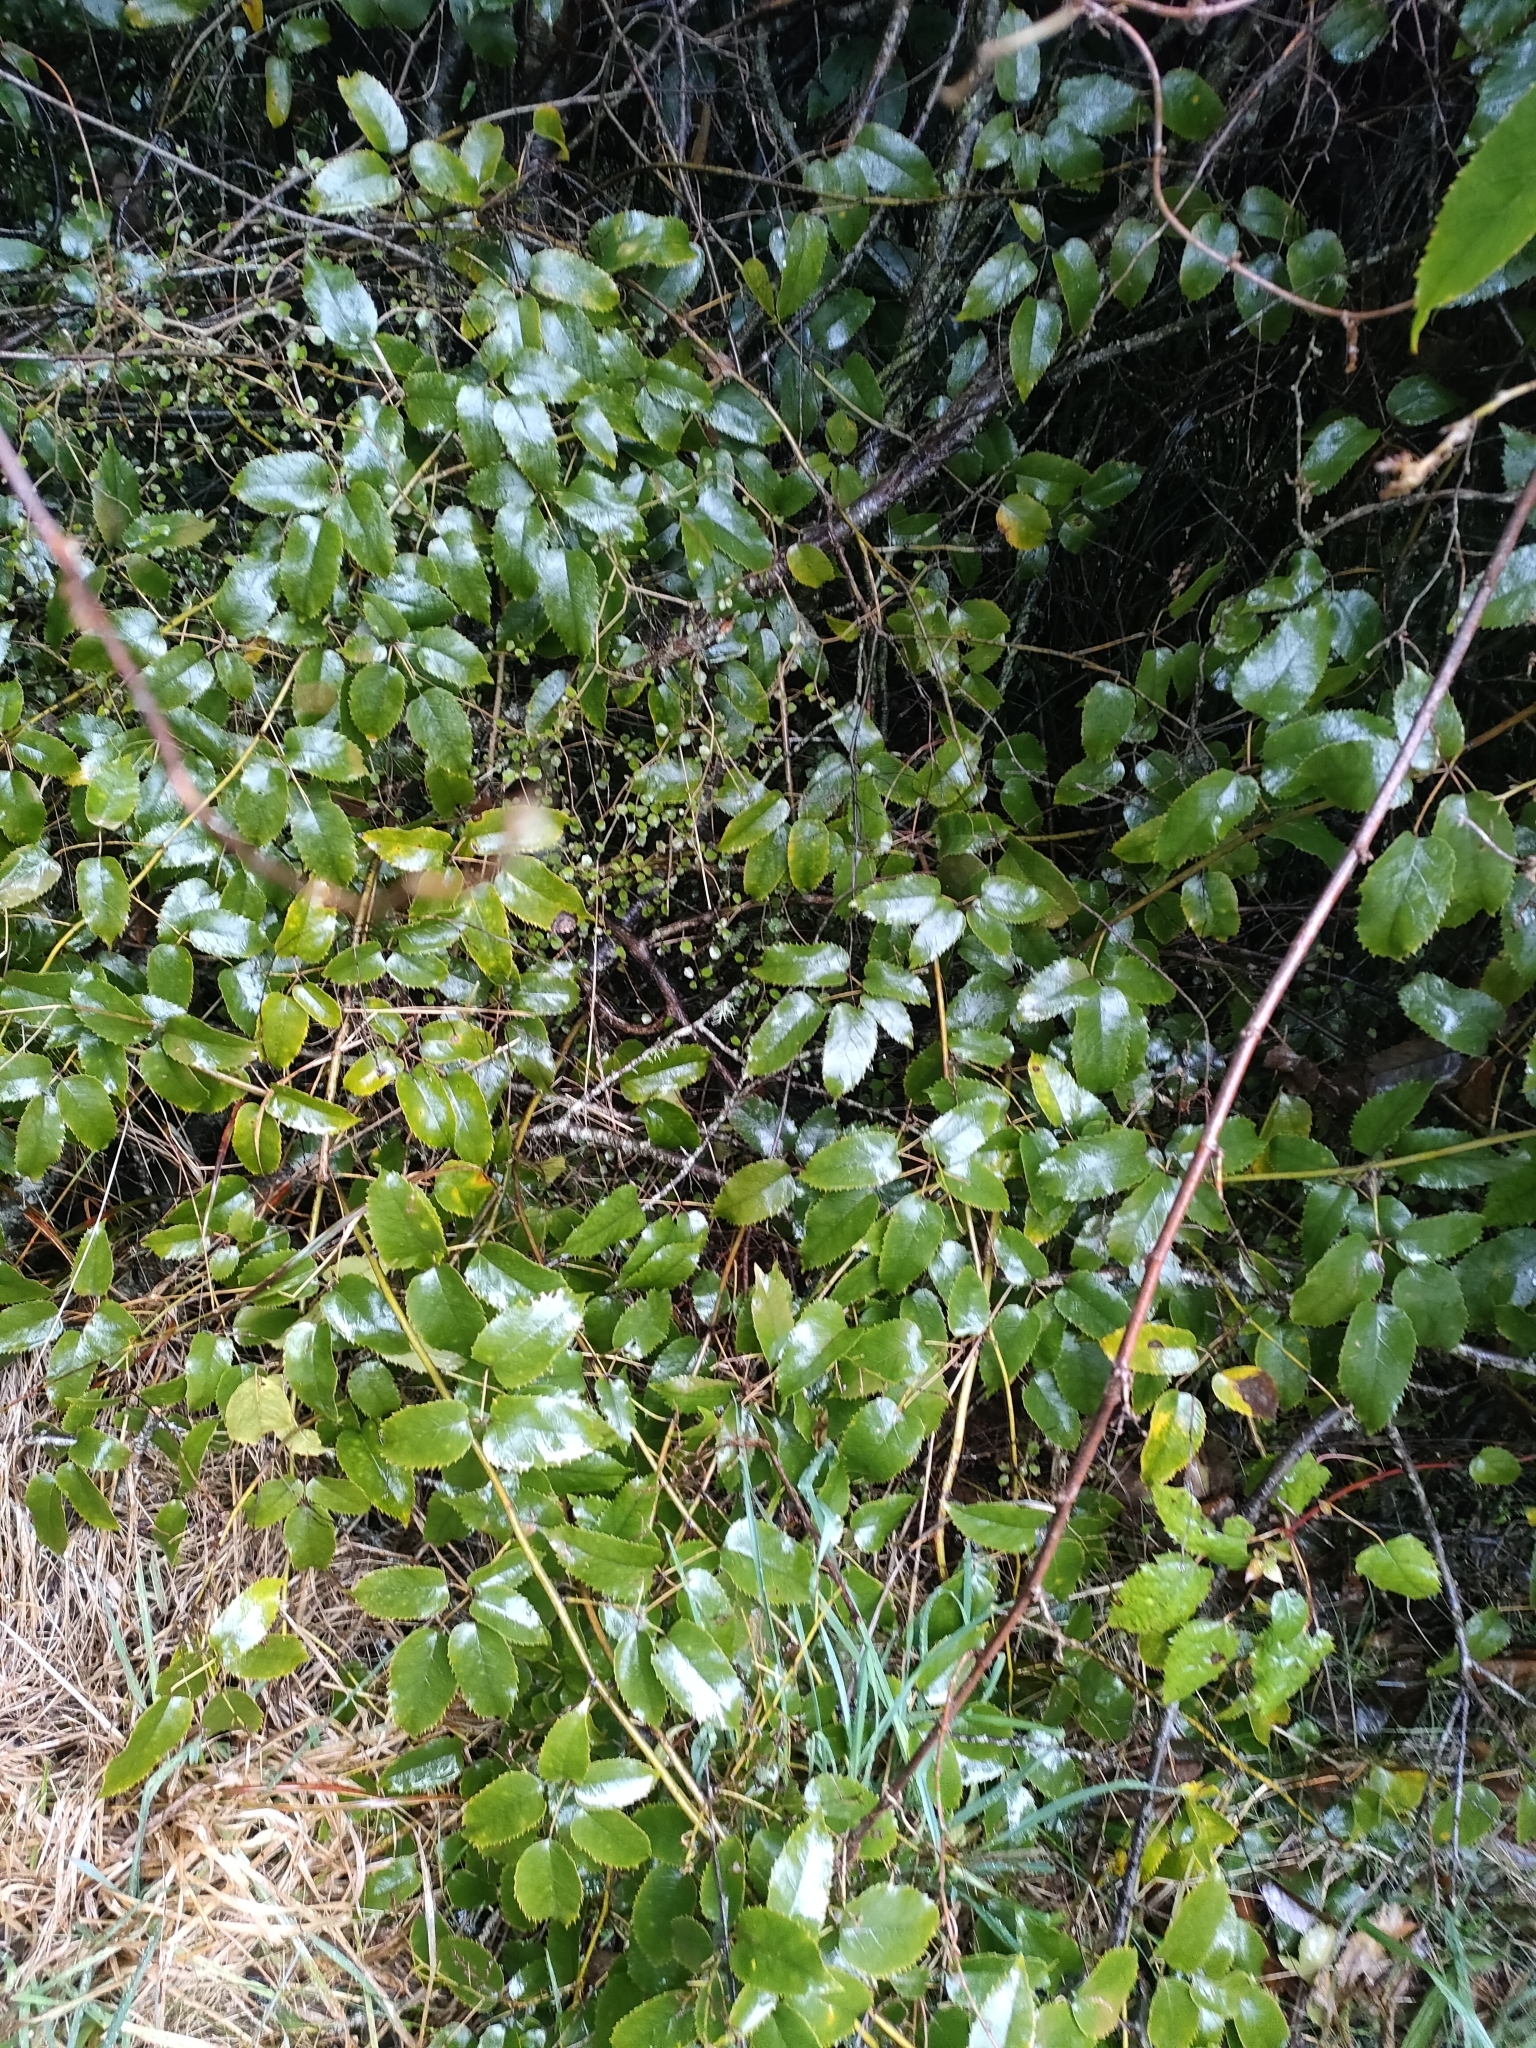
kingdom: Plantae
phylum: Tracheophyta
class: Magnoliopsida
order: Rosales
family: Rosaceae
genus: Rubus
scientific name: Rubus cissoides
